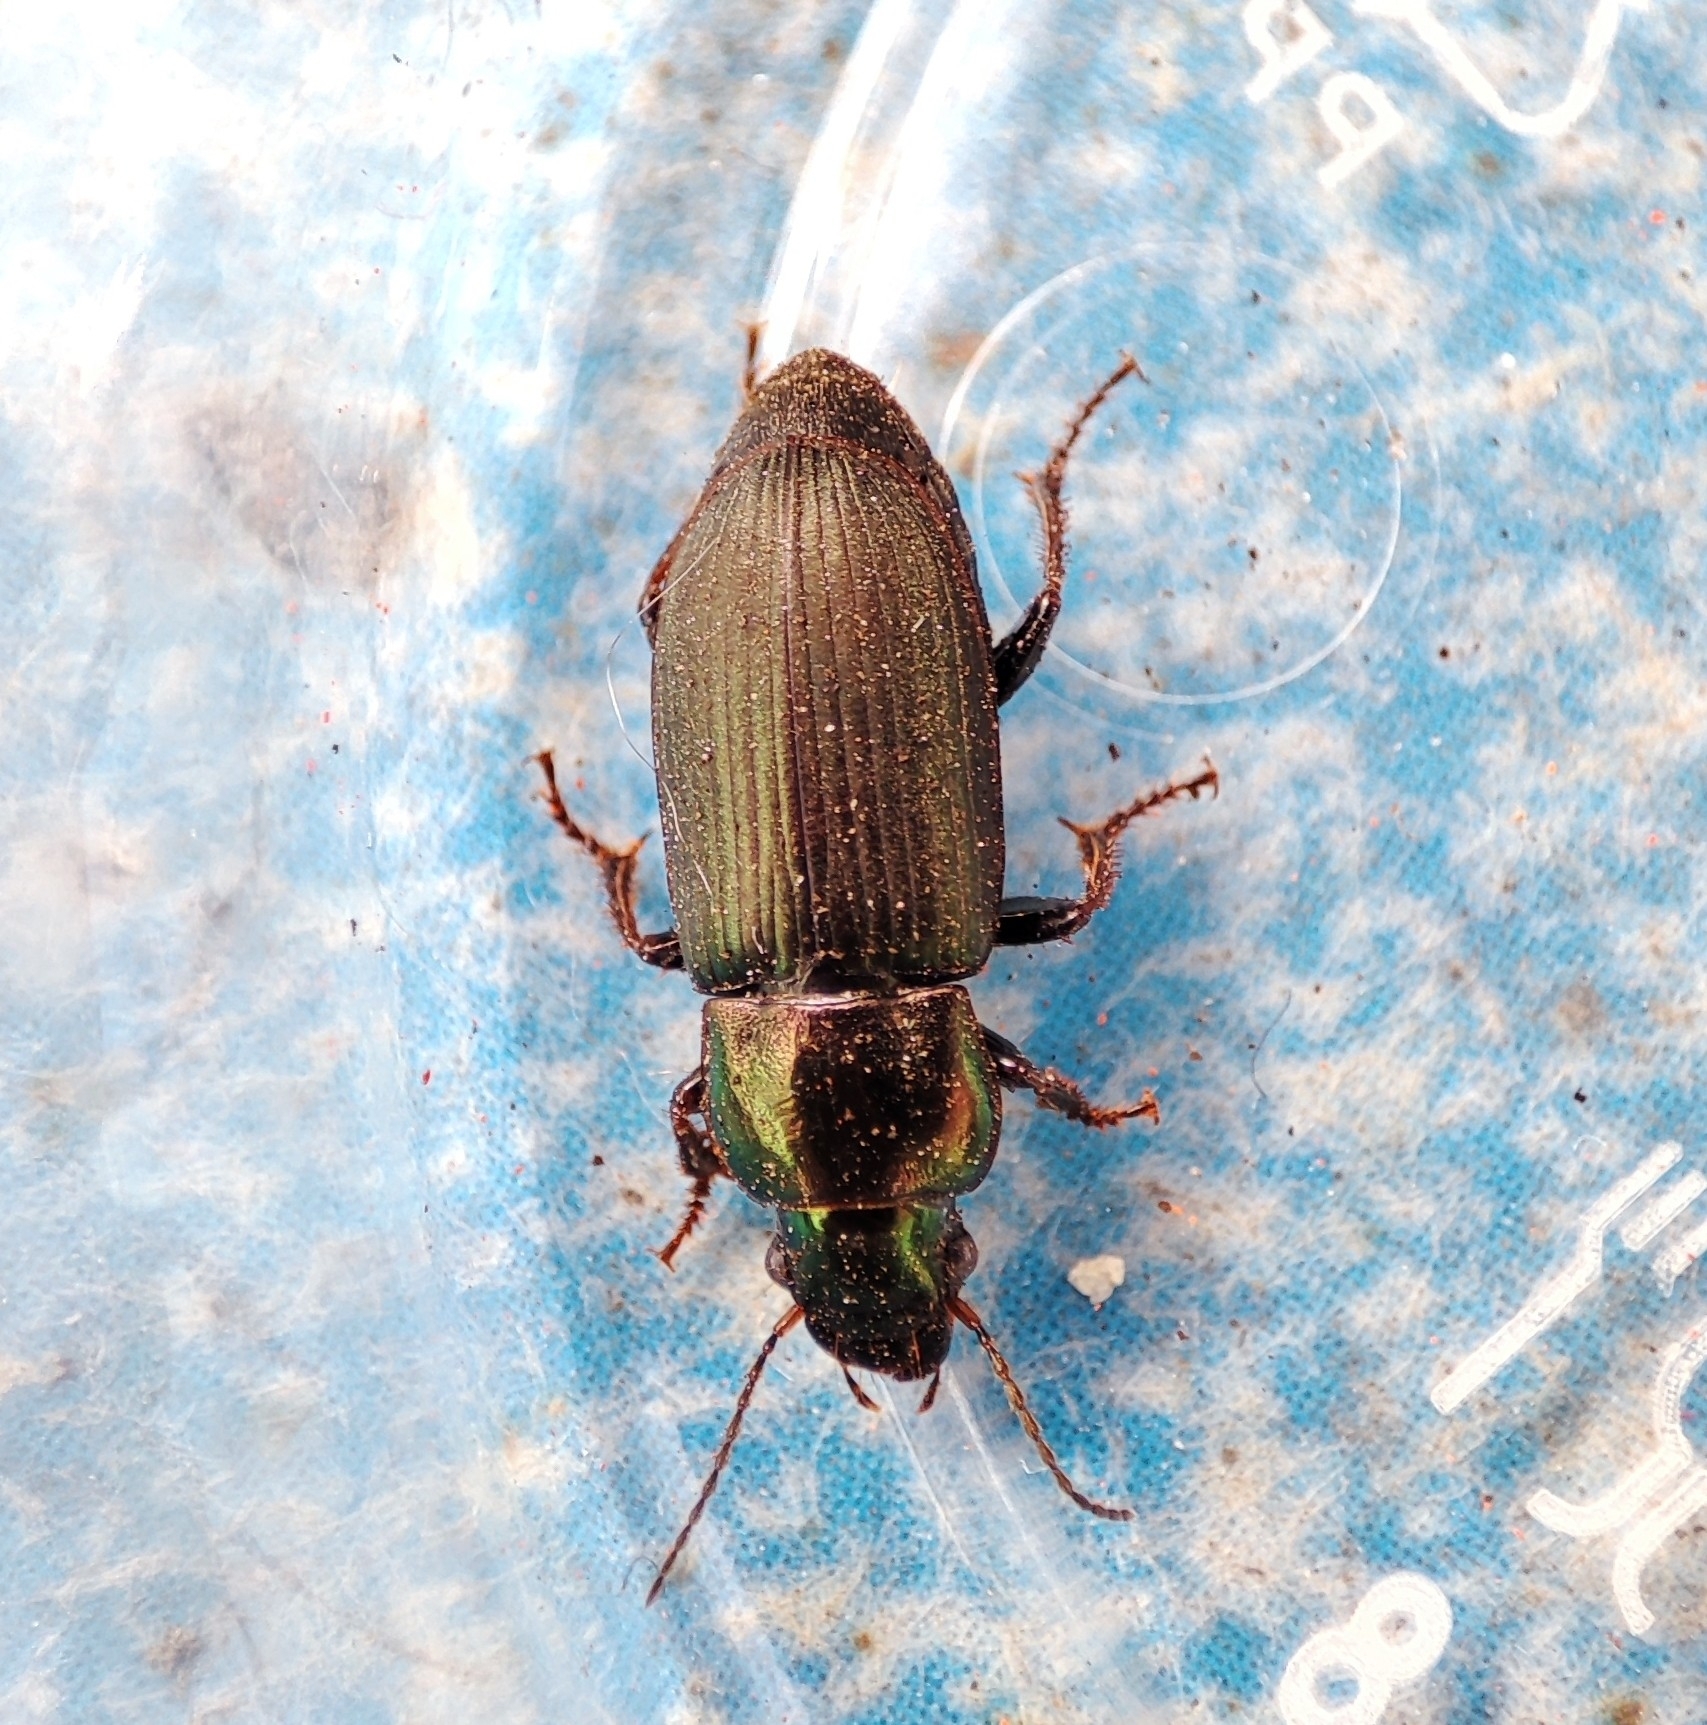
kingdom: Animalia
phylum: Arthropoda
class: Insecta
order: Coleoptera
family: Carabidae
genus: Harpalus
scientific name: Harpalus distinguendus
